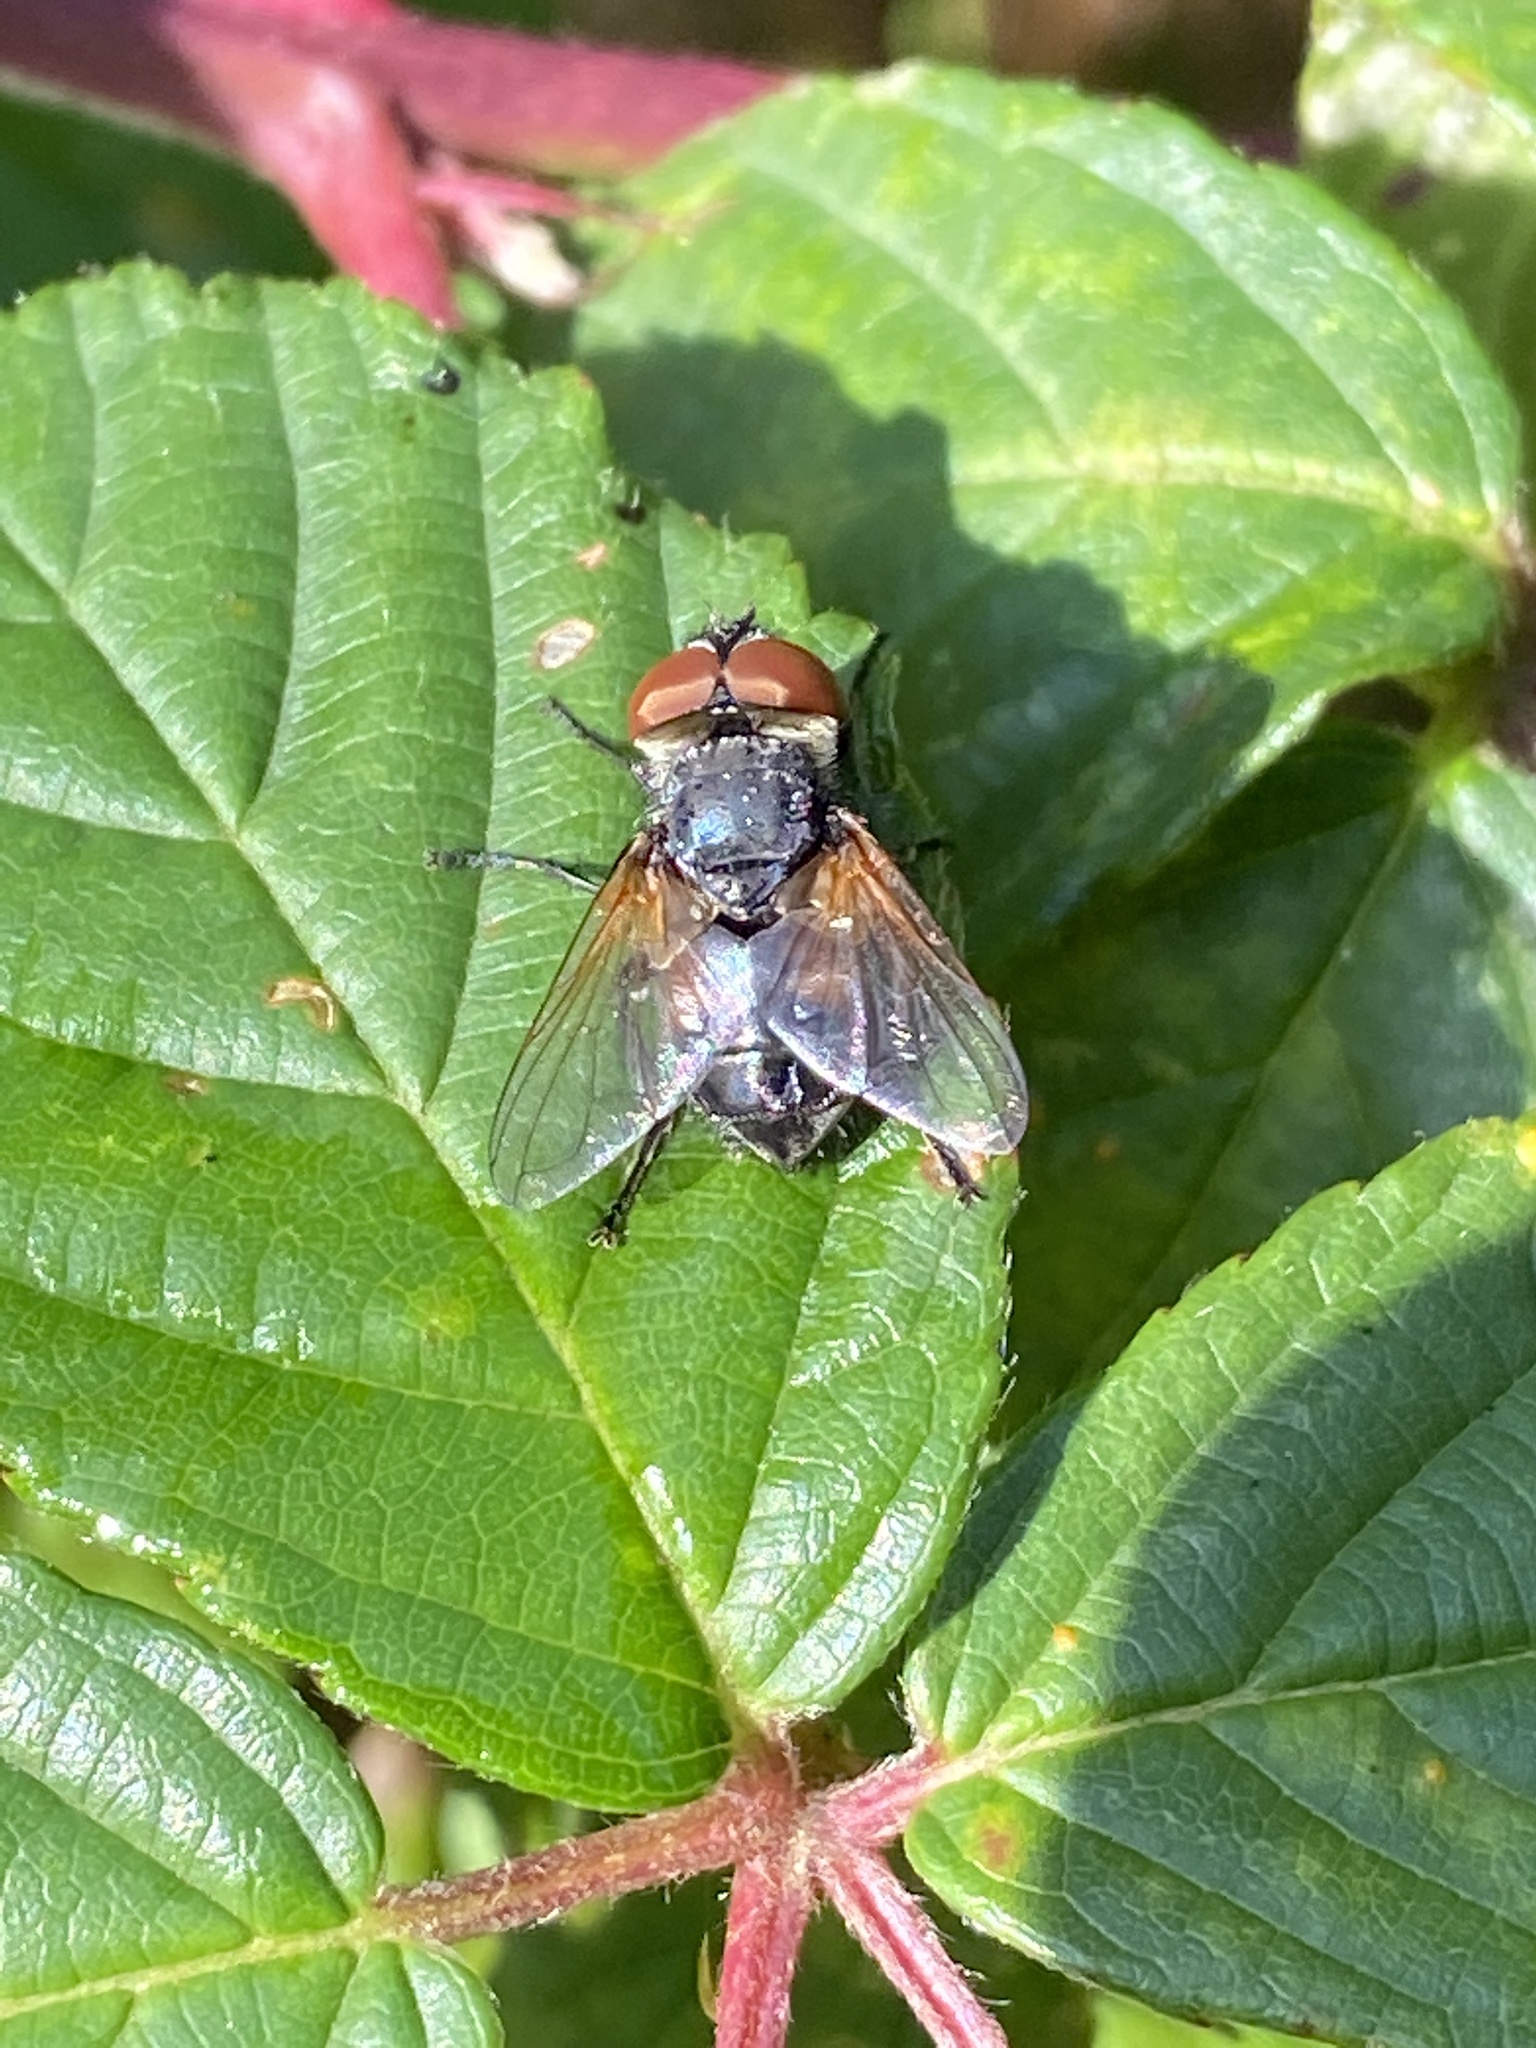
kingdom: Animalia
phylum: Arthropoda
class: Insecta
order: Diptera
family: Tachinidae
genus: Phasia
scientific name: Phasia aurigera
